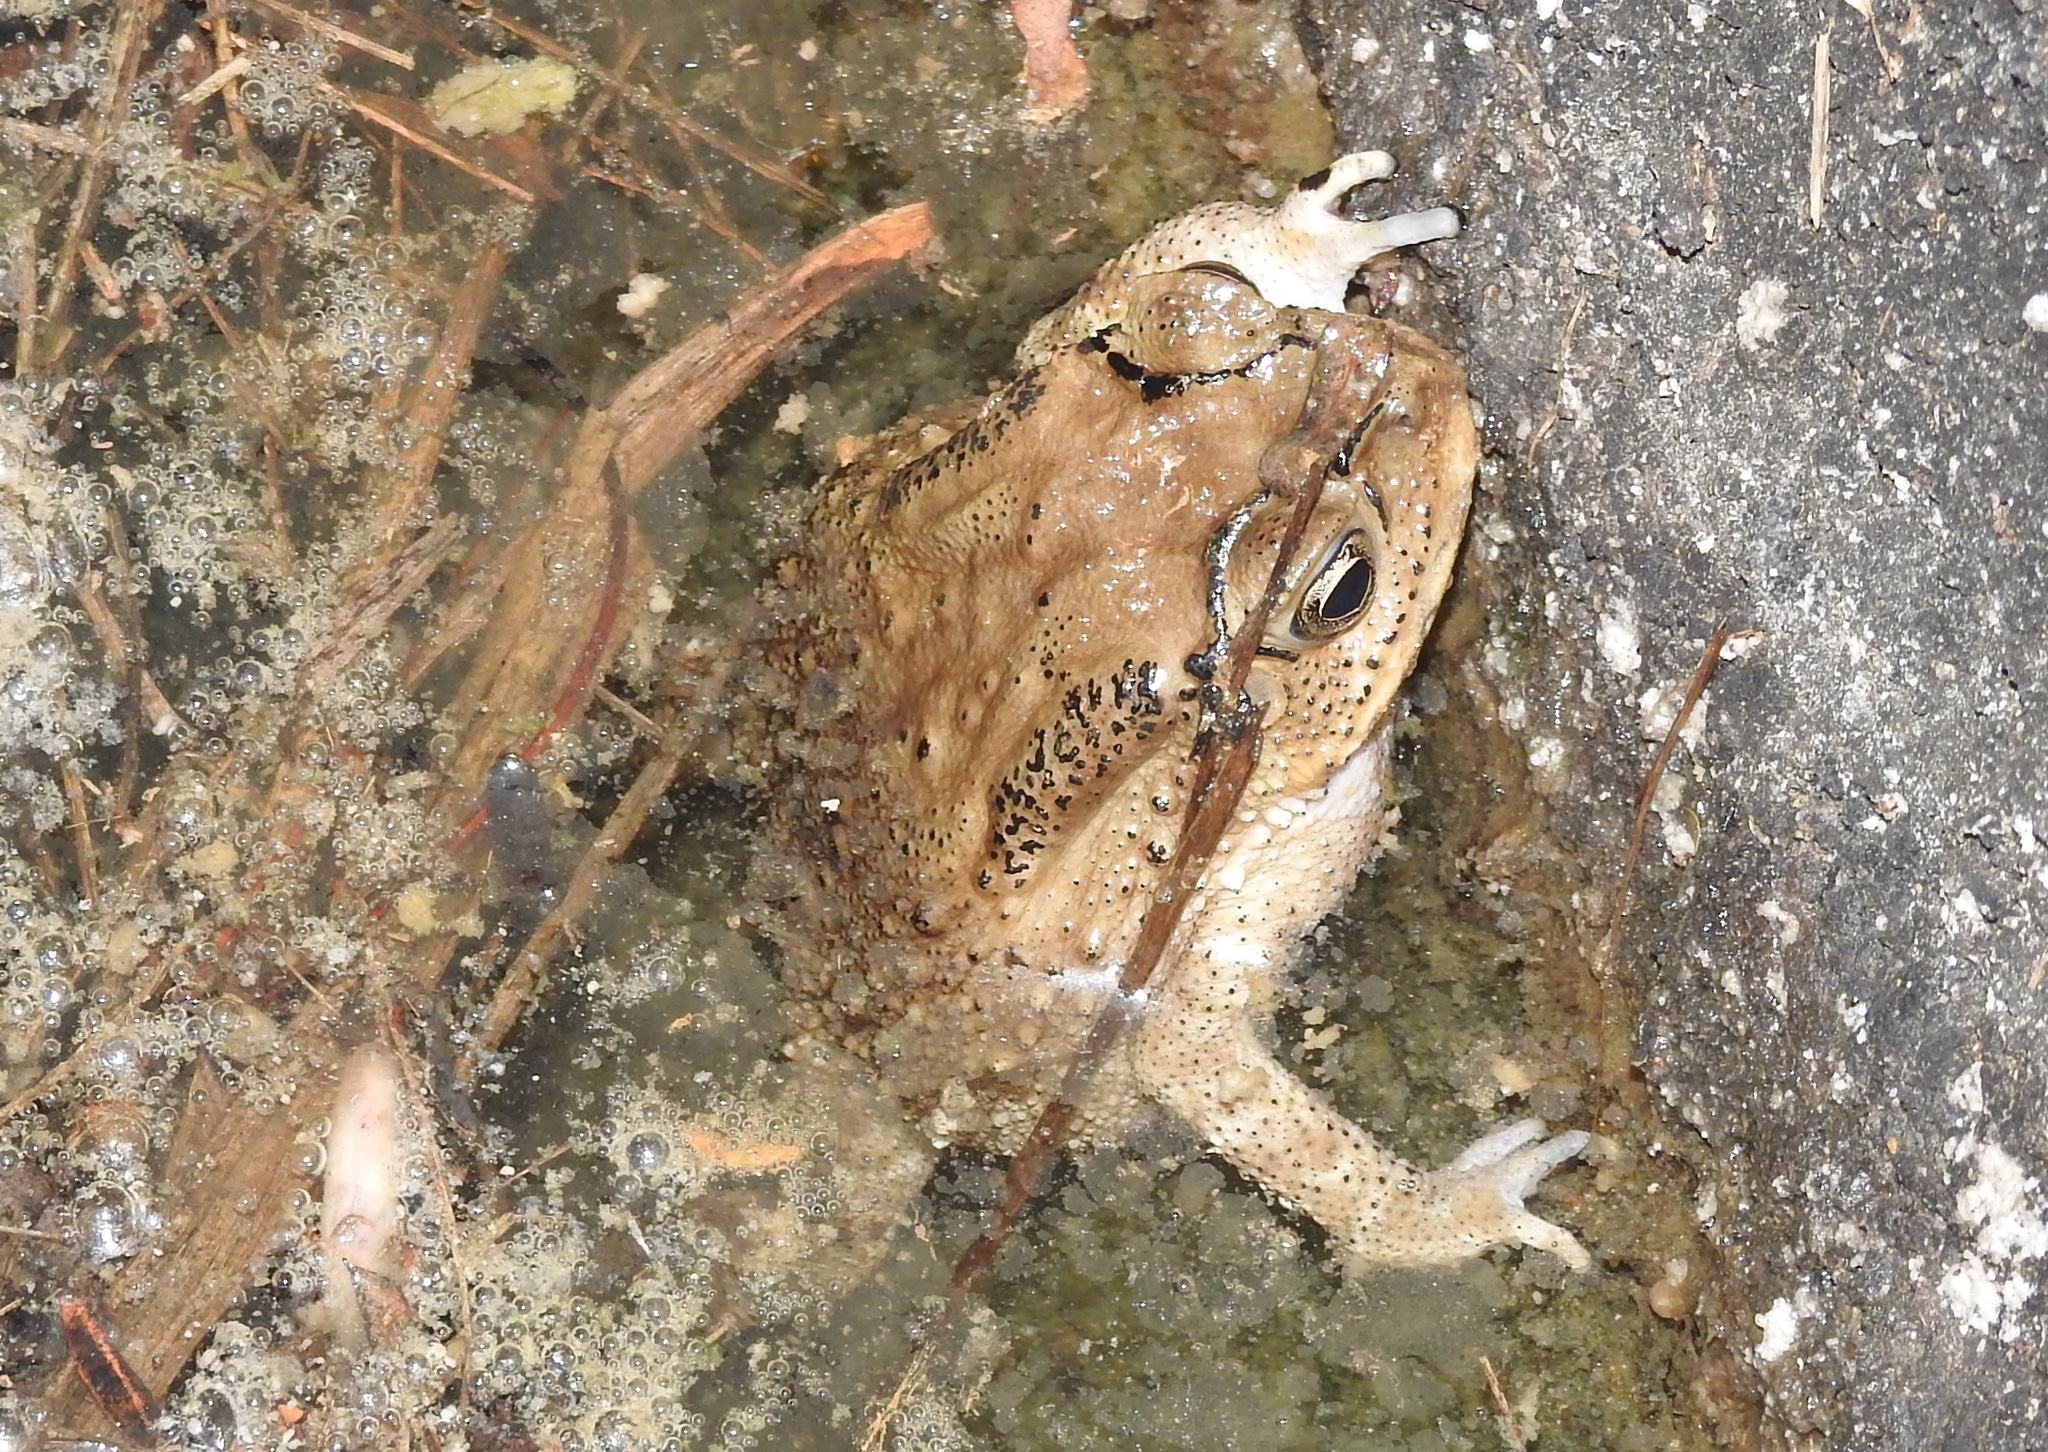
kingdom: Animalia
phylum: Chordata
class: Amphibia
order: Anura
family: Bufonidae
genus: Duttaphrynus
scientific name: Duttaphrynus melanostictus
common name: Common sunda toad
